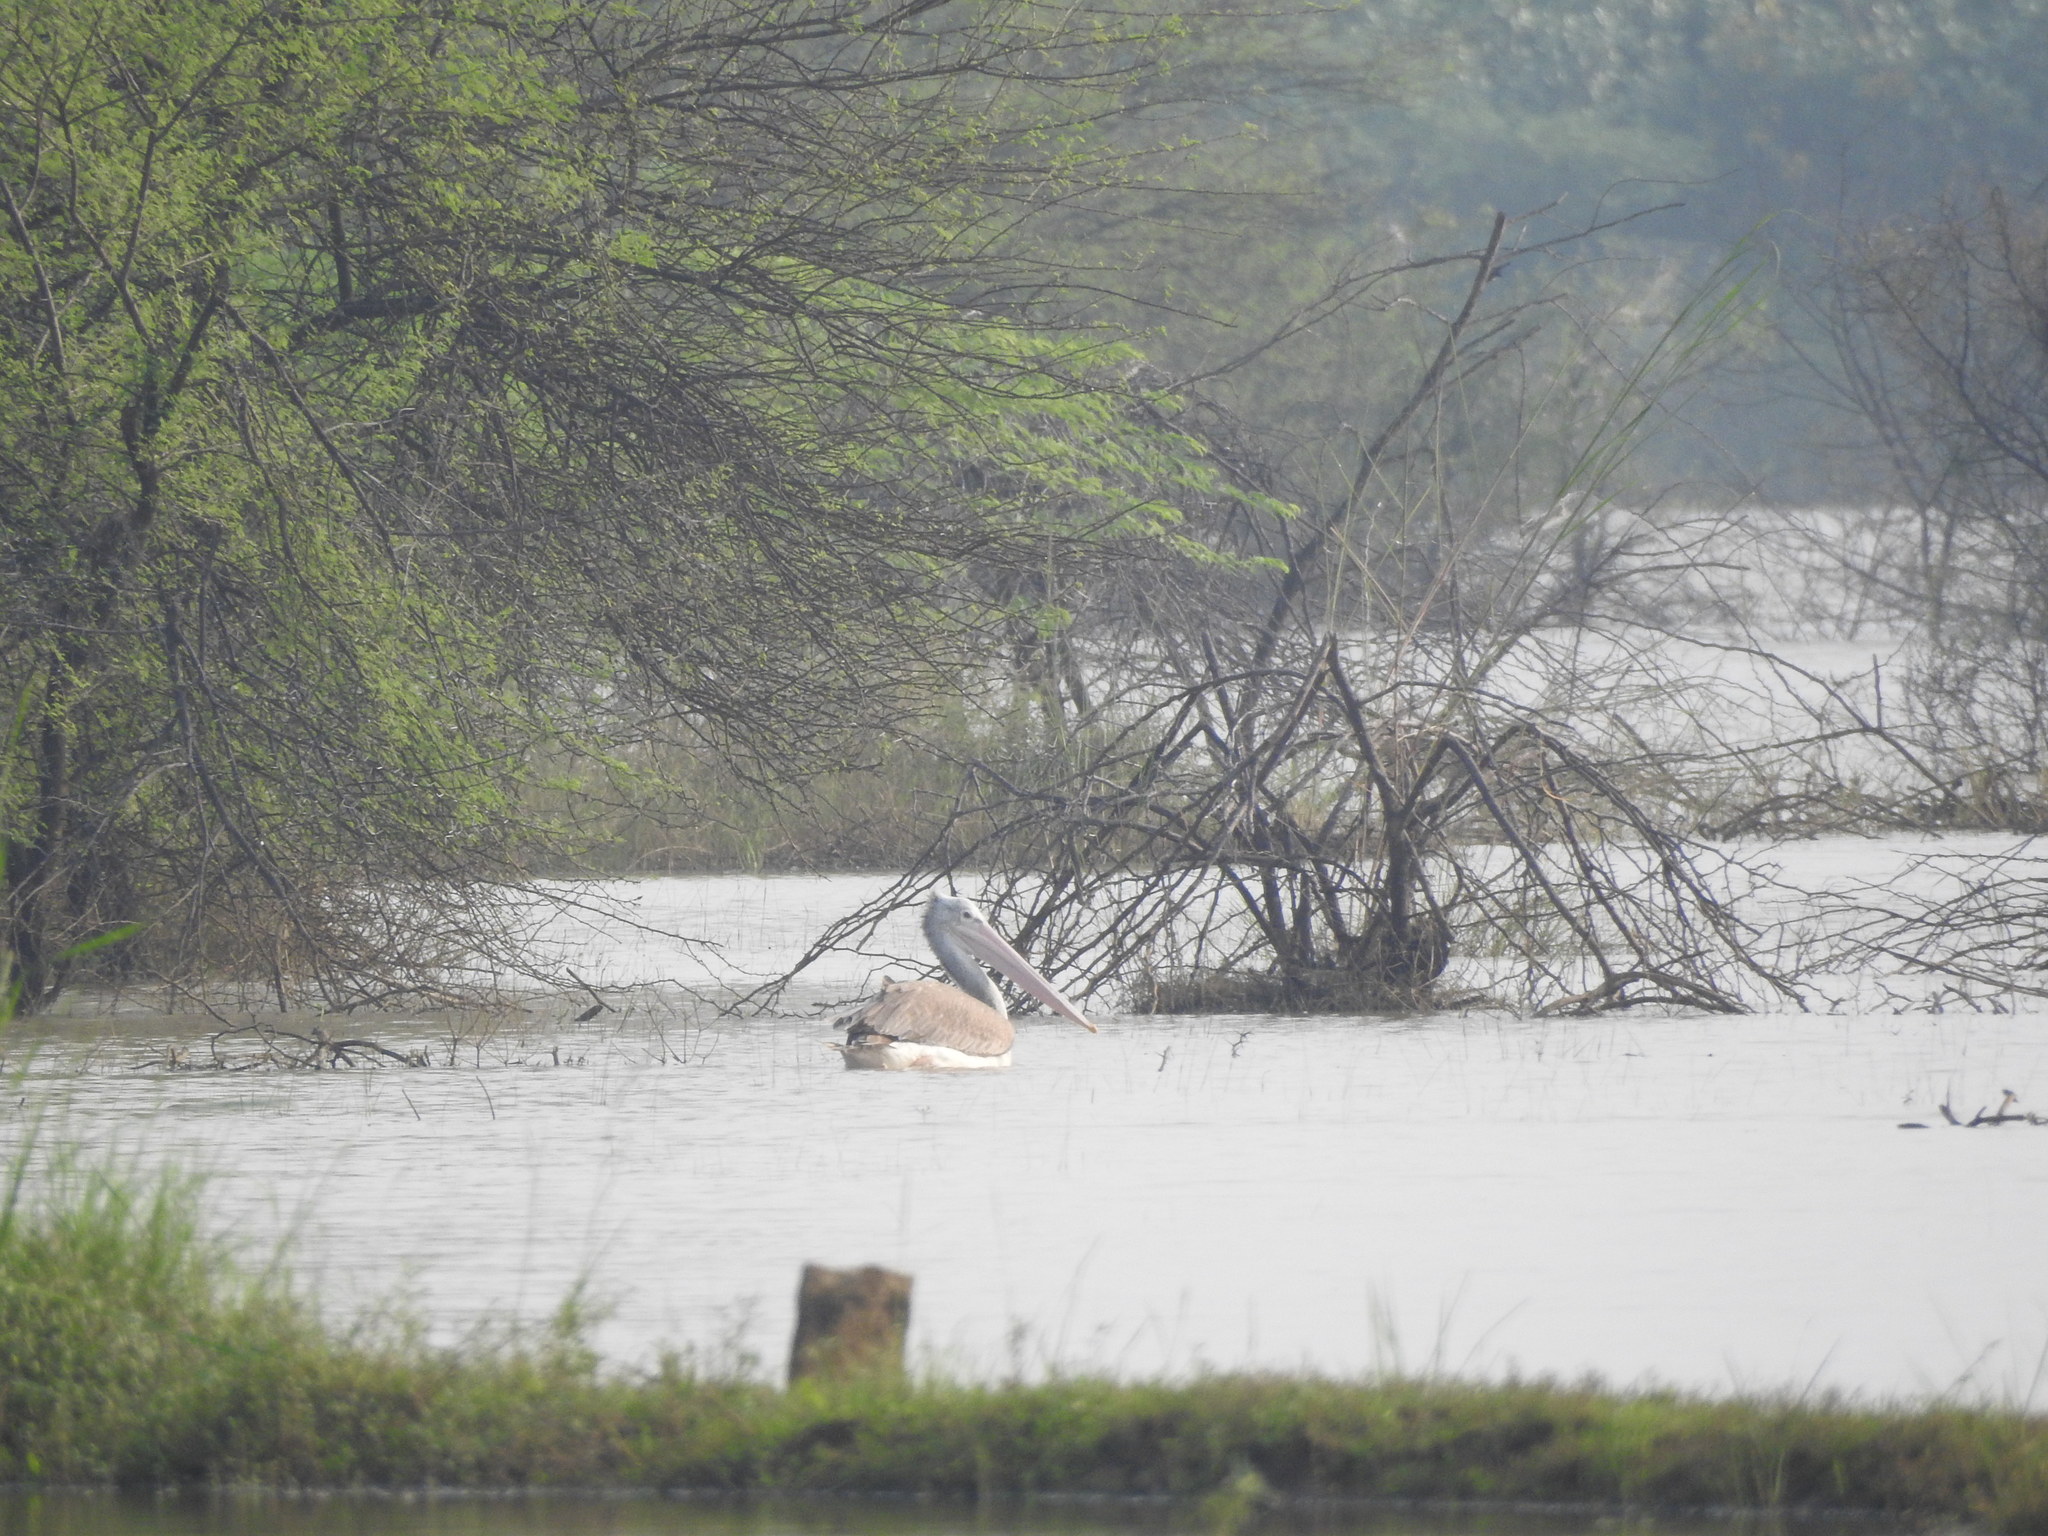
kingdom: Animalia
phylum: Chordata
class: Aves
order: Pelecaniformes
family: Pelecanidae
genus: Pelecanus
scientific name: Pelecanus philippensis
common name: Spot-billed pelican
